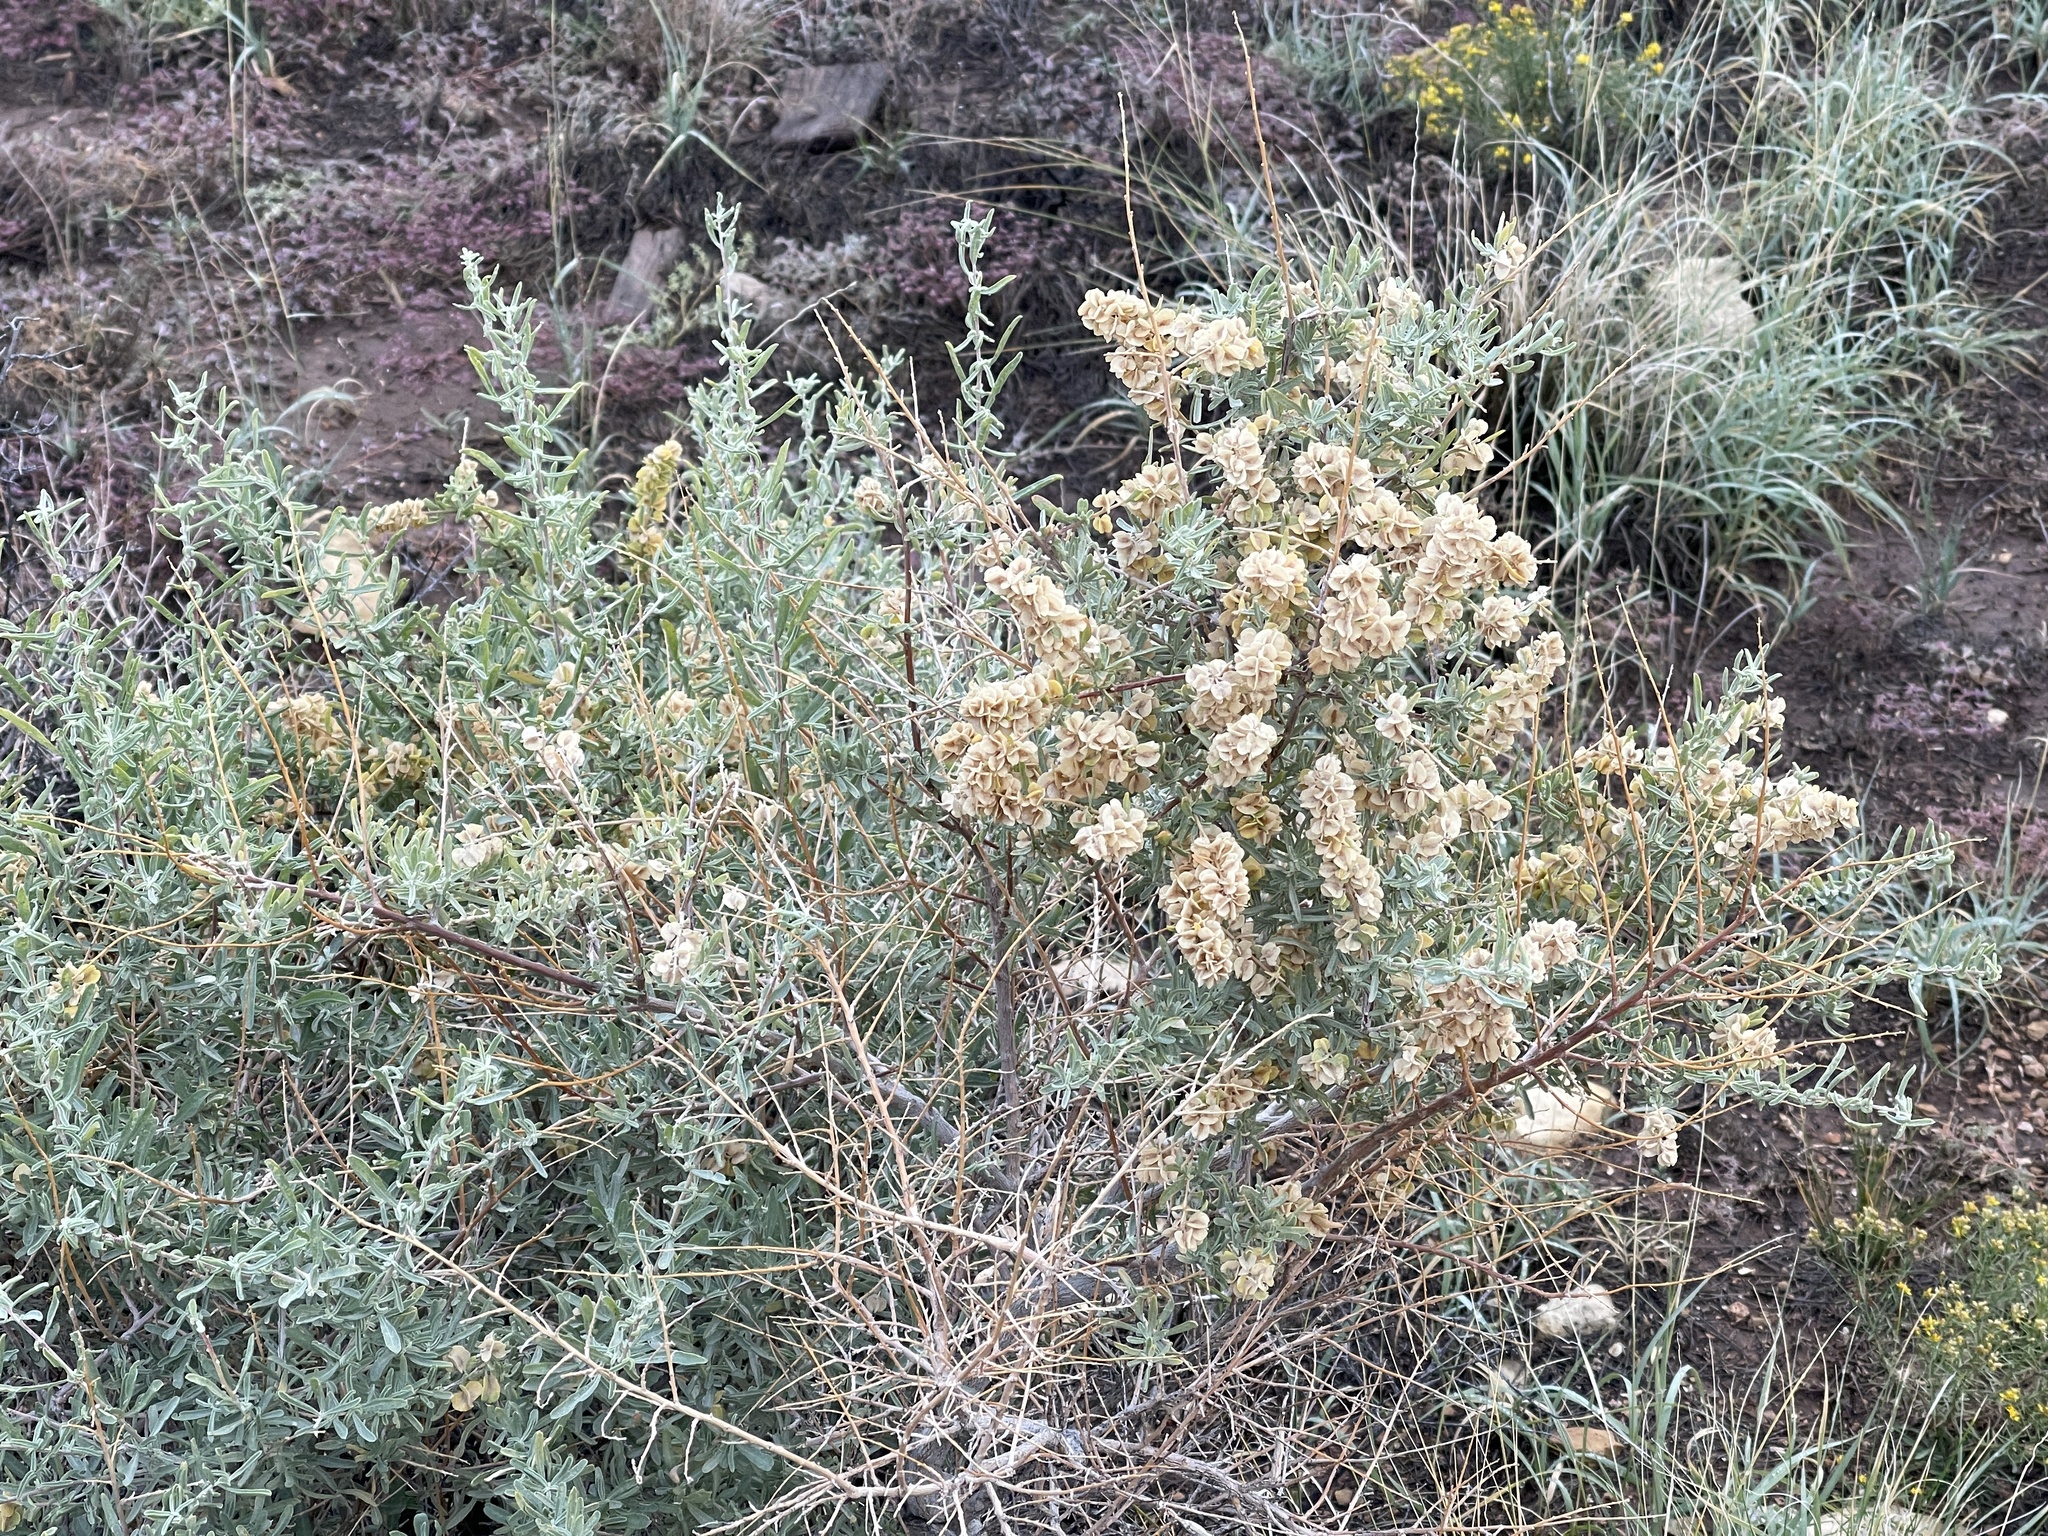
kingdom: Plantae
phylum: Tracheophyta
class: Magnoliopsida
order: Caryophyllales
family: Amaranthaceae
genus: Atriplex
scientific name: Atriplex canescens
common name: Four-wing saltbush
